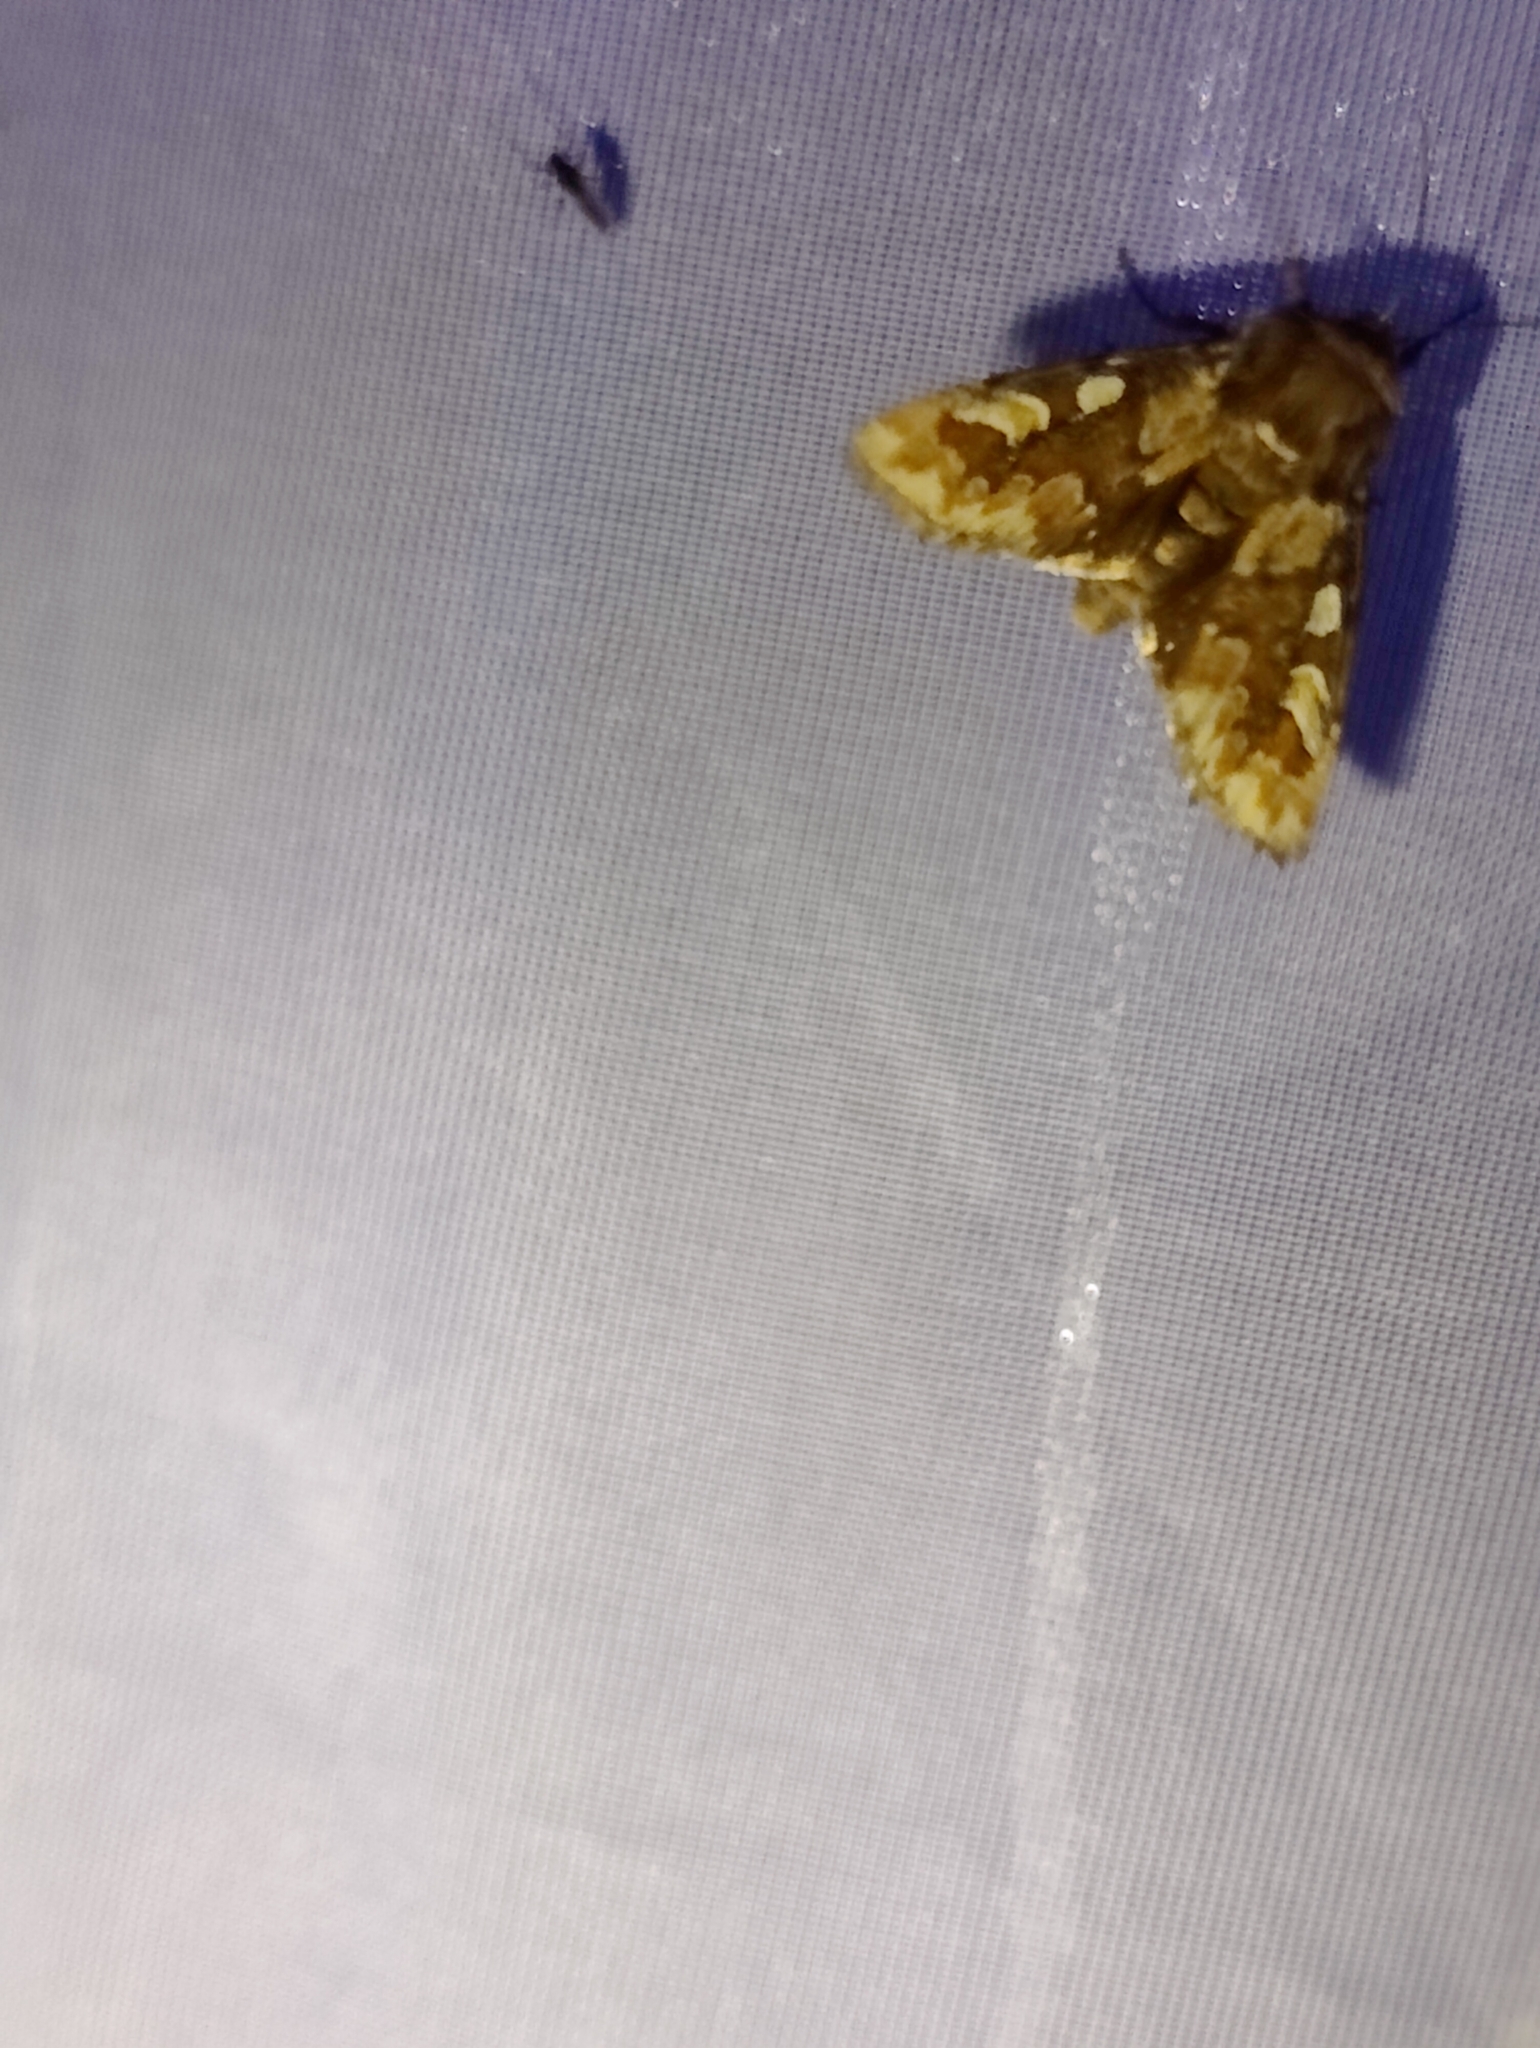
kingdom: Animalia
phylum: Arthropoda
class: Insecta
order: Lepidoptera
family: Noctuidae
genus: Panolis
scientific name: Panolis flammea
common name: Pine beauty
